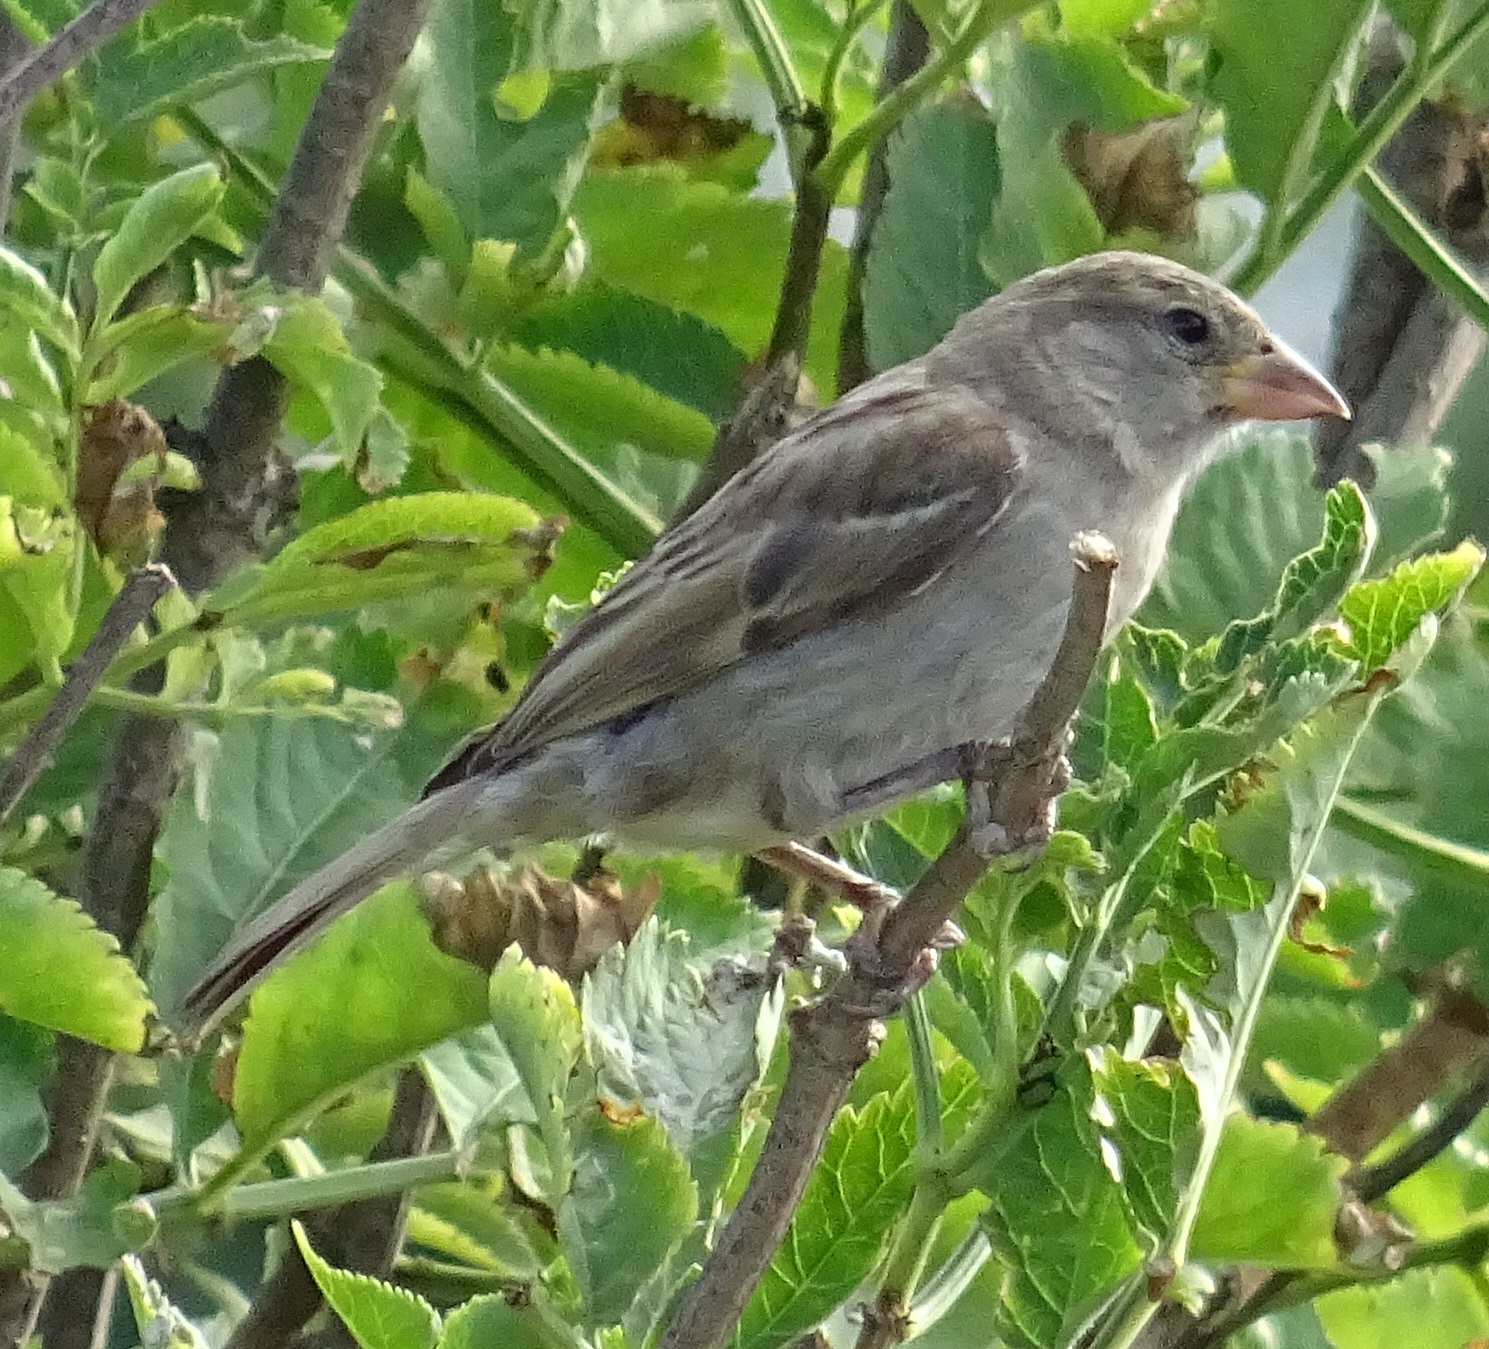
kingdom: Animalia
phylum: Chordata
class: Aves
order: Passeriformes
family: Passeridae
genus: Passer
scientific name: Passer domesticus
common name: House sparrow
